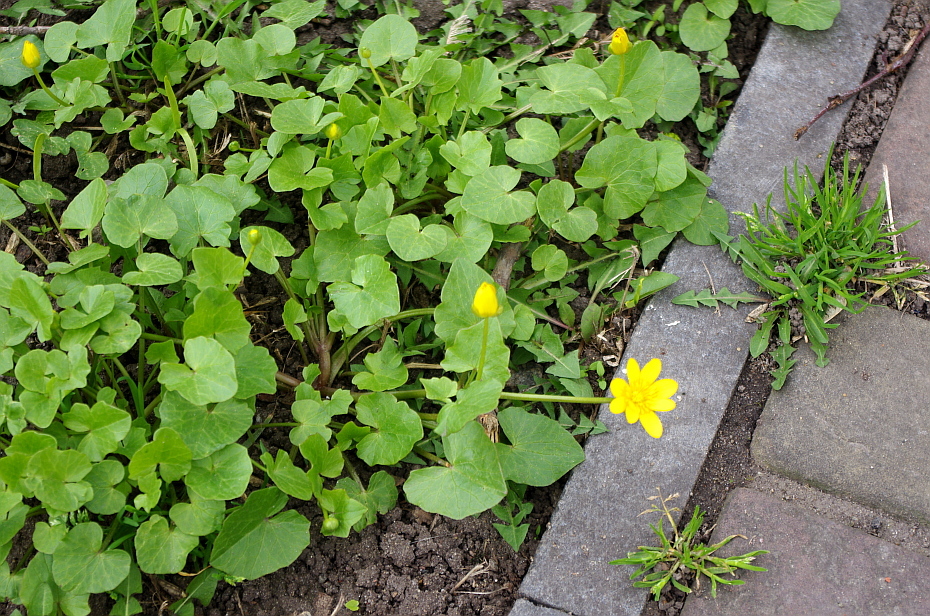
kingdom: Plantae
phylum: Tracheophyta
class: Magnoliopsida
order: Ranunculales
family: Ranunculaceae
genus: Ficaria
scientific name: Ficaria verna
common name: Lesser celandine
